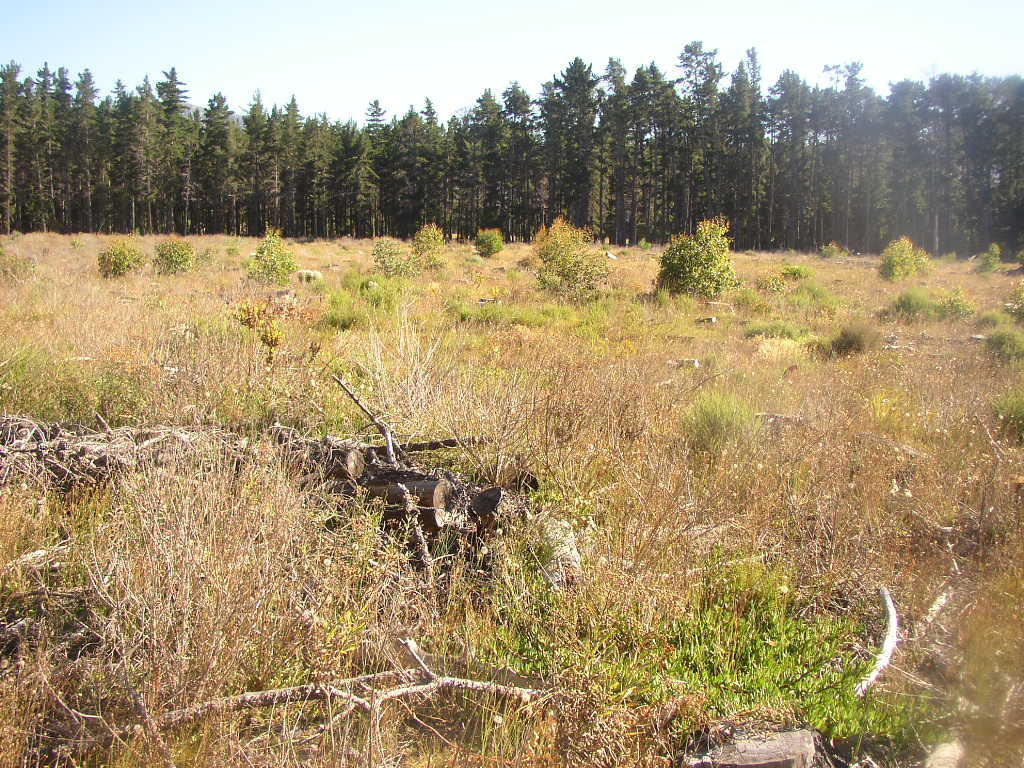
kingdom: Plantae
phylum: Tracheophyta
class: Magnoliopsida
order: Myrtales
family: Myrtaceae
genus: Eucalyptus
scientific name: Eucalyptus botryoides
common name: Bangalay
